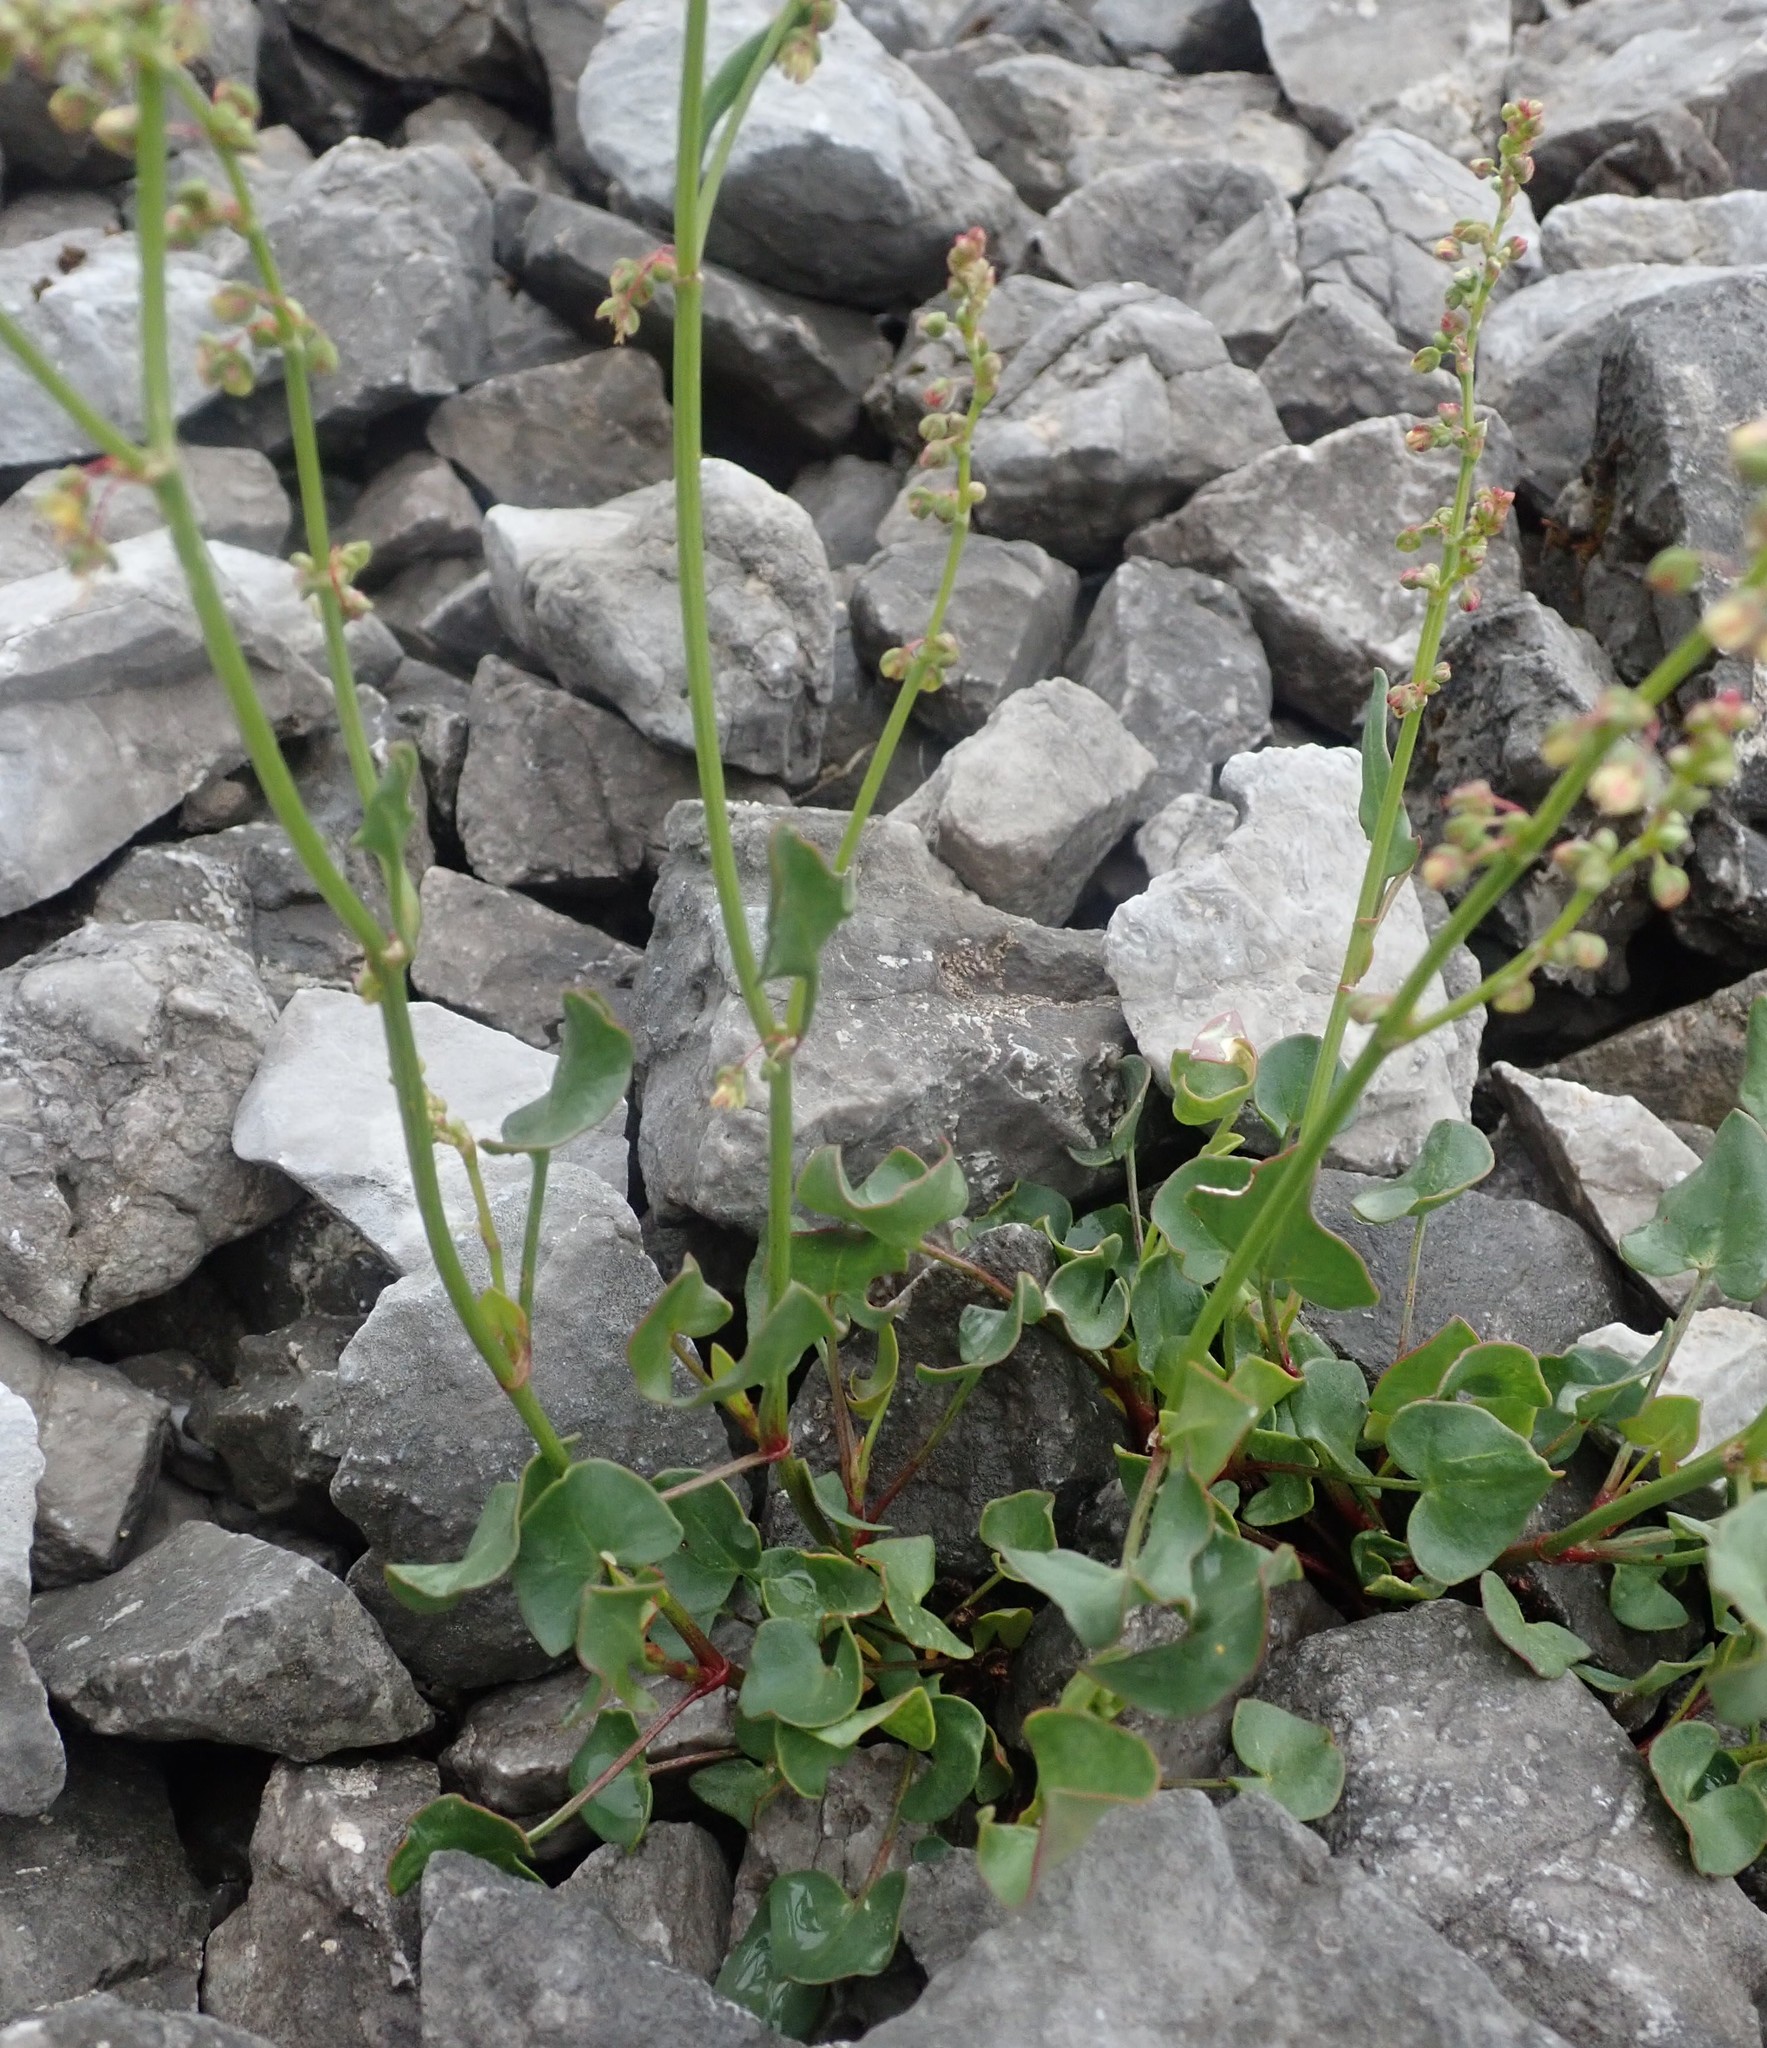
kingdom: Plantae
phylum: Tracheophyta
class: Magnoliopsida
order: Caryophyllales
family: Polygonaceae
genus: Oxyria
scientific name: Oxyria digyna
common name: Alpine mountain-sorrel
